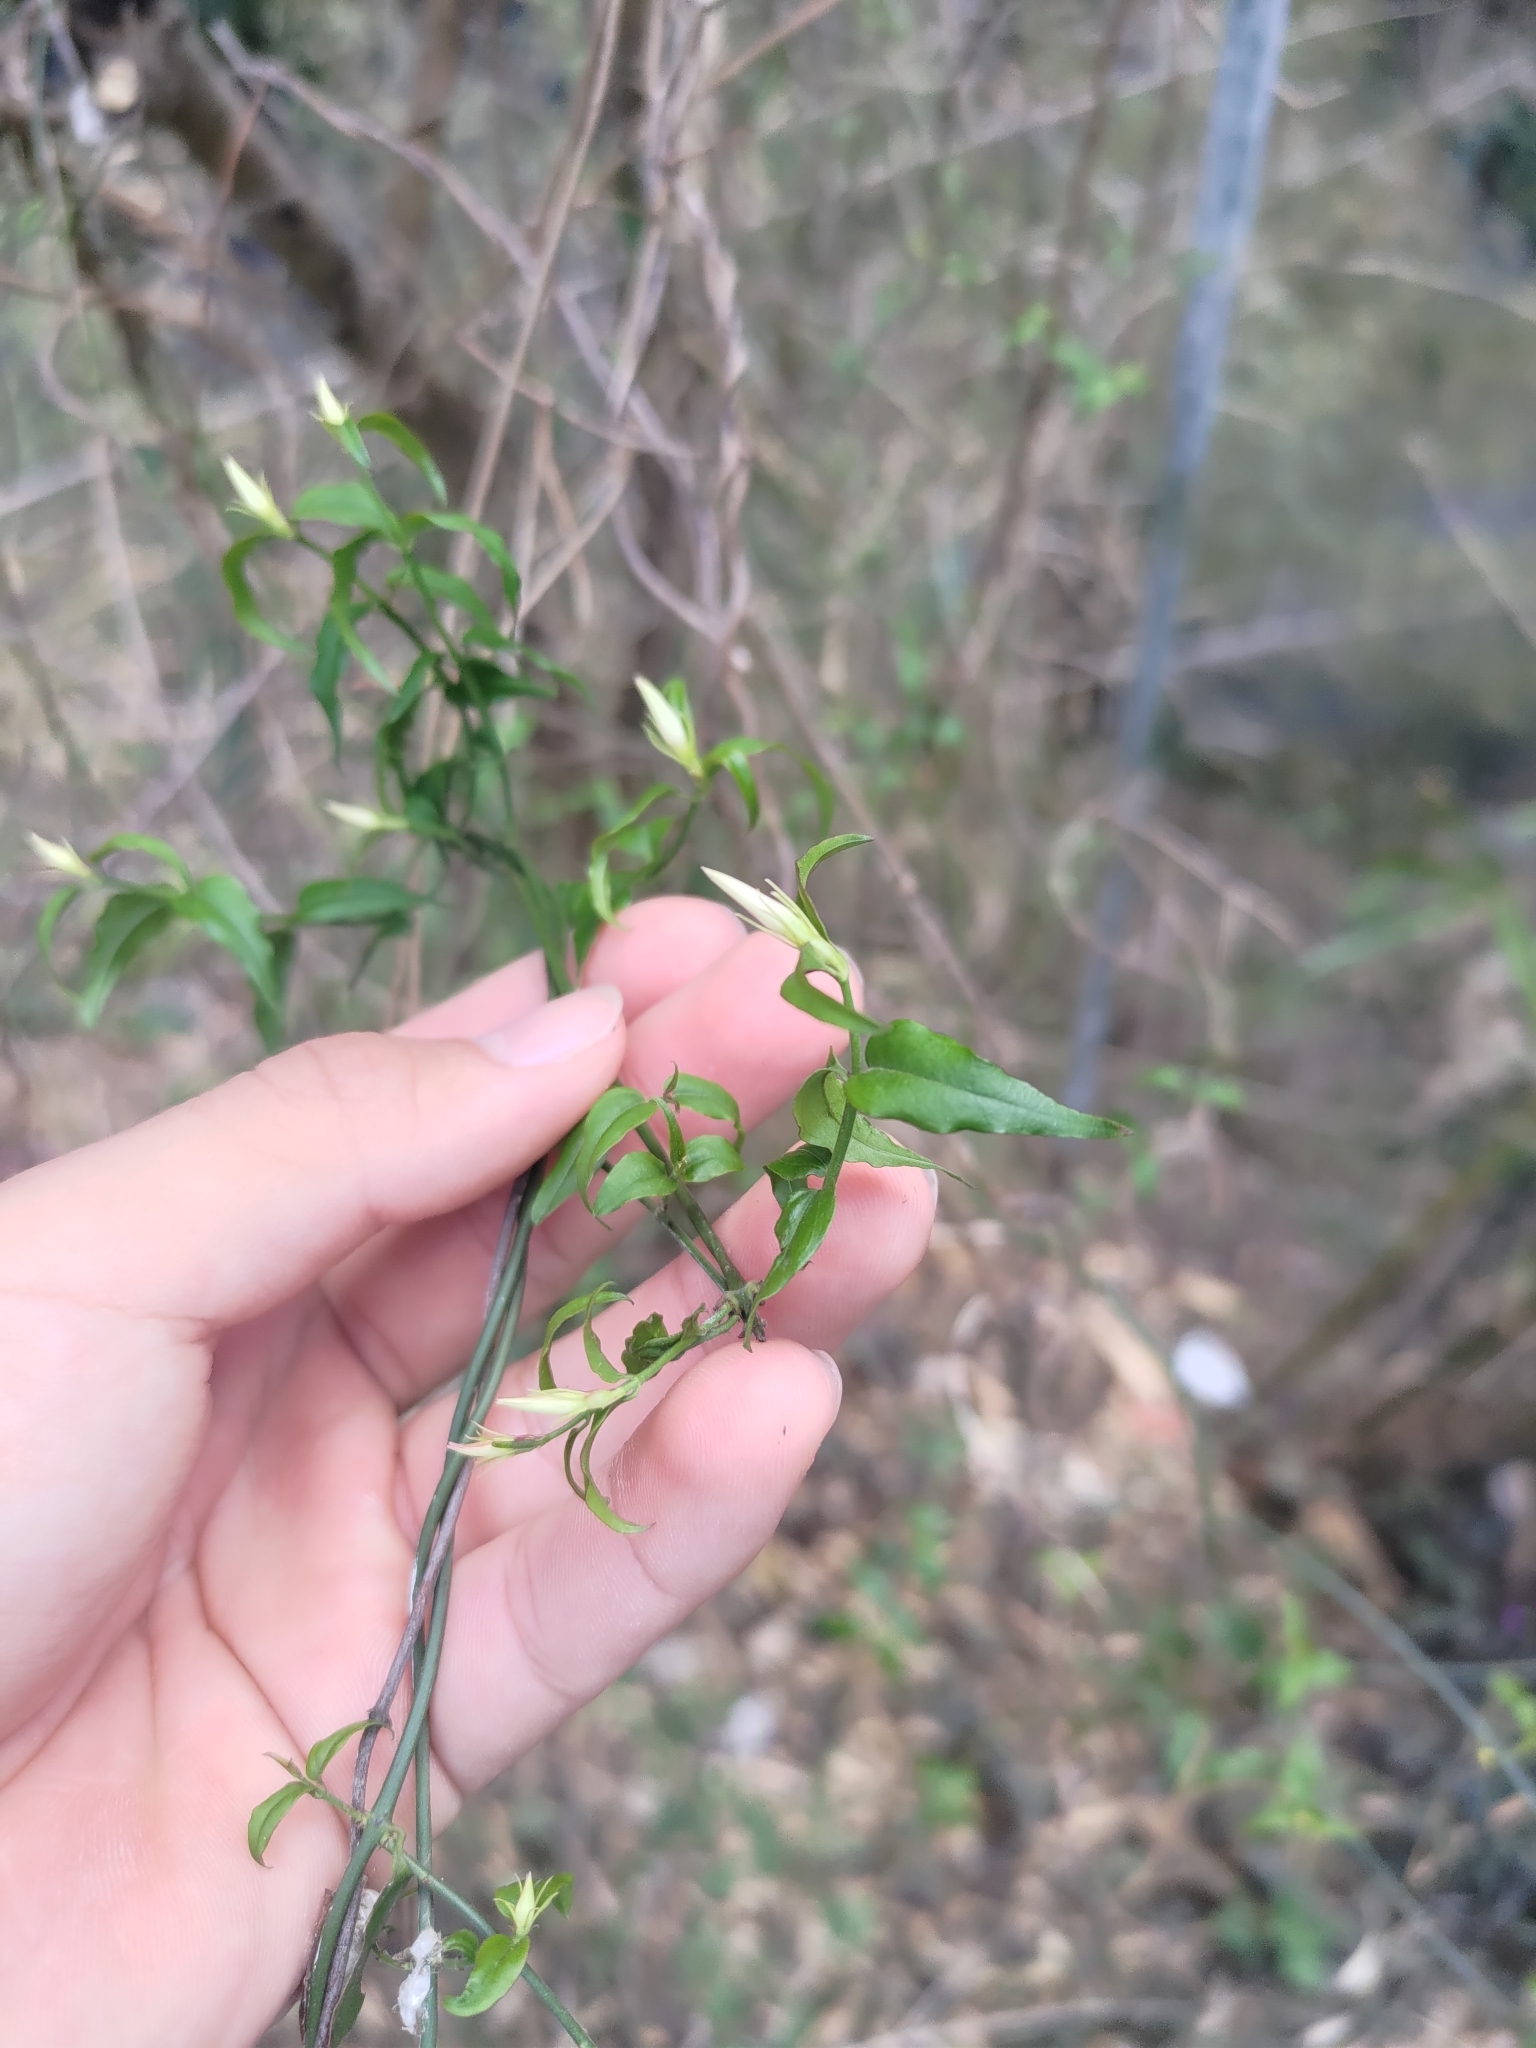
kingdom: Plantae
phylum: Tracheophyta
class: Magnoliopsida
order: Lamiales
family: Oleaceae
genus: Jasminum
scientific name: Jasminum nervosum
